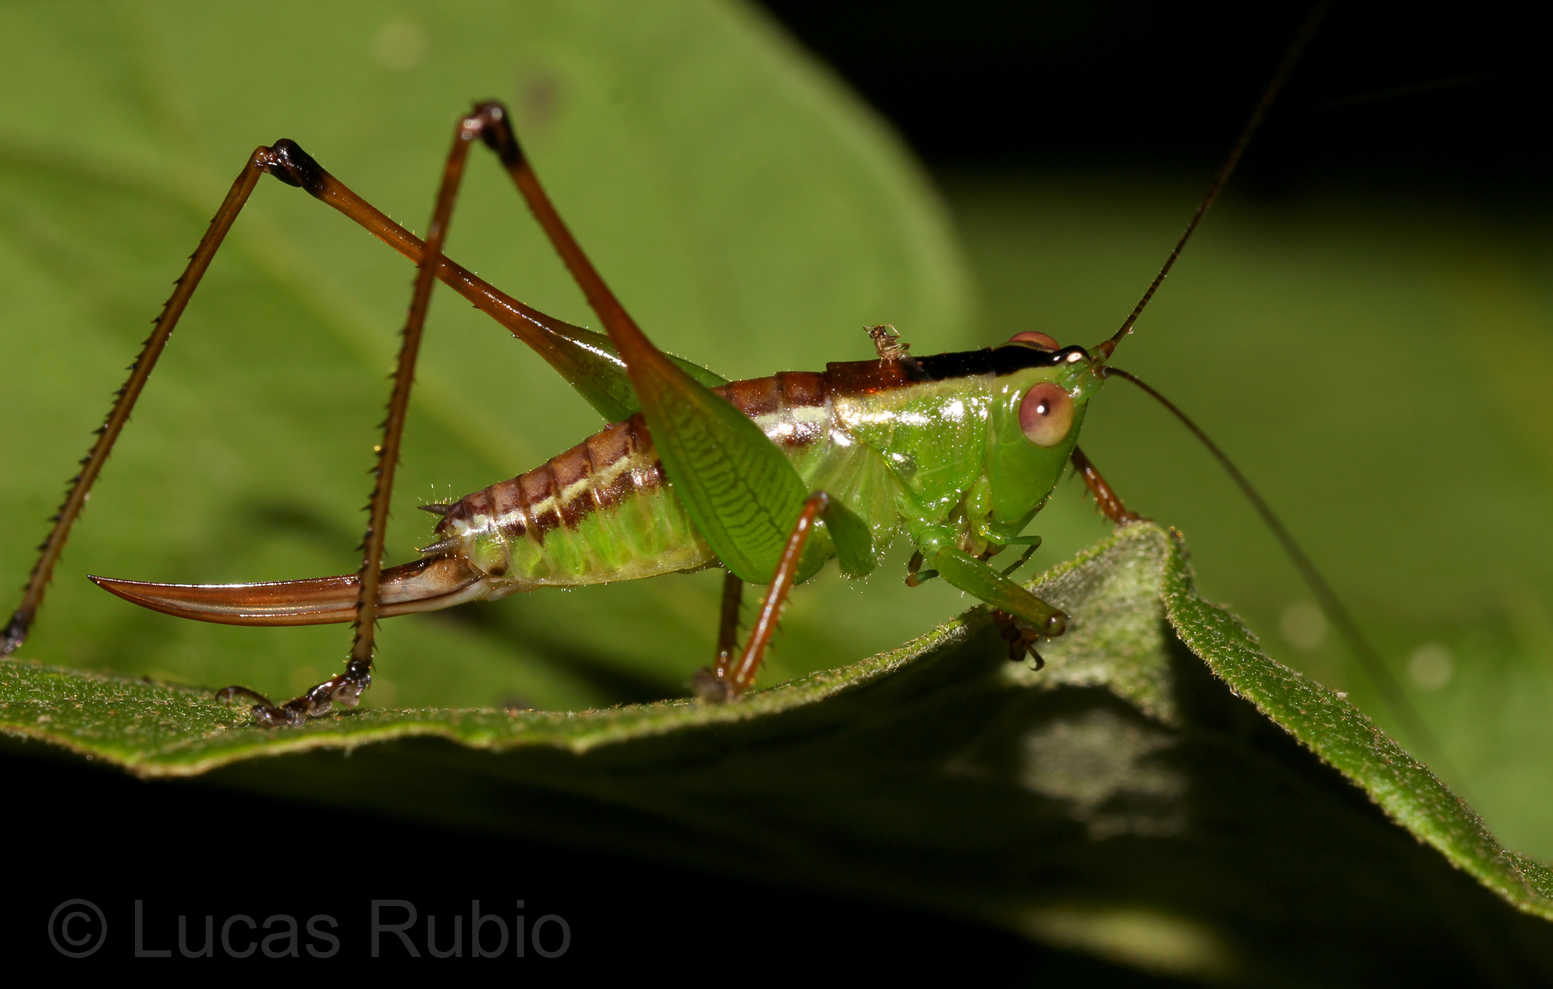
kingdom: Animalia
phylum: Arthropoda
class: Insecta
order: Orthoptera
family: Tettigoniidae
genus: Xiphelimum
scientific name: Xiphelimum amplipennis
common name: Clear-wing meadow katydid
